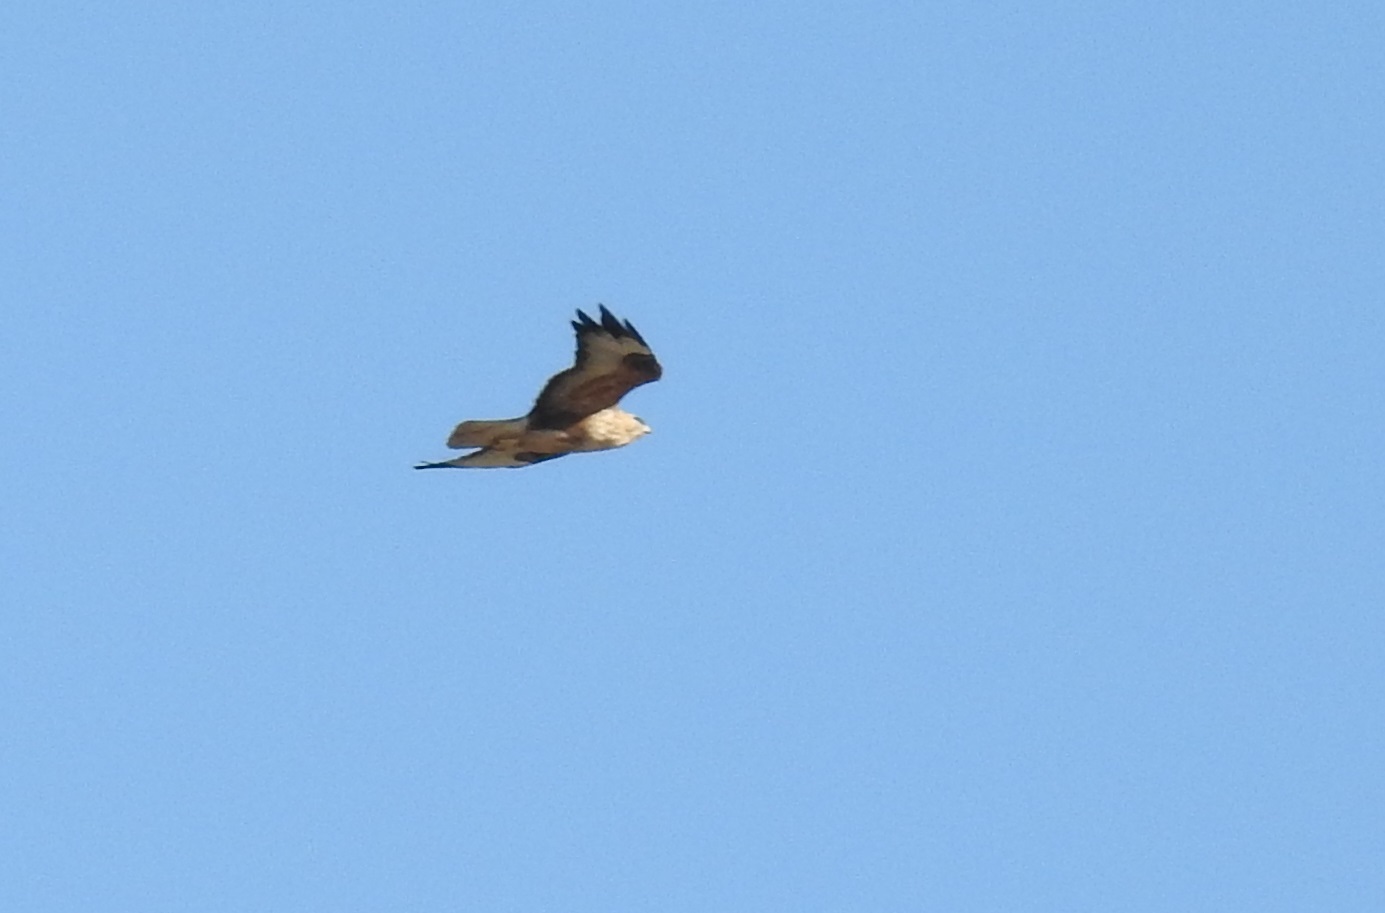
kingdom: Animalia
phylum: Chordata
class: Aves
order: Accipitriformes
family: Accipitridae
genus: Buteo
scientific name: Buteo rufinus
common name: Long-legged buzzard
